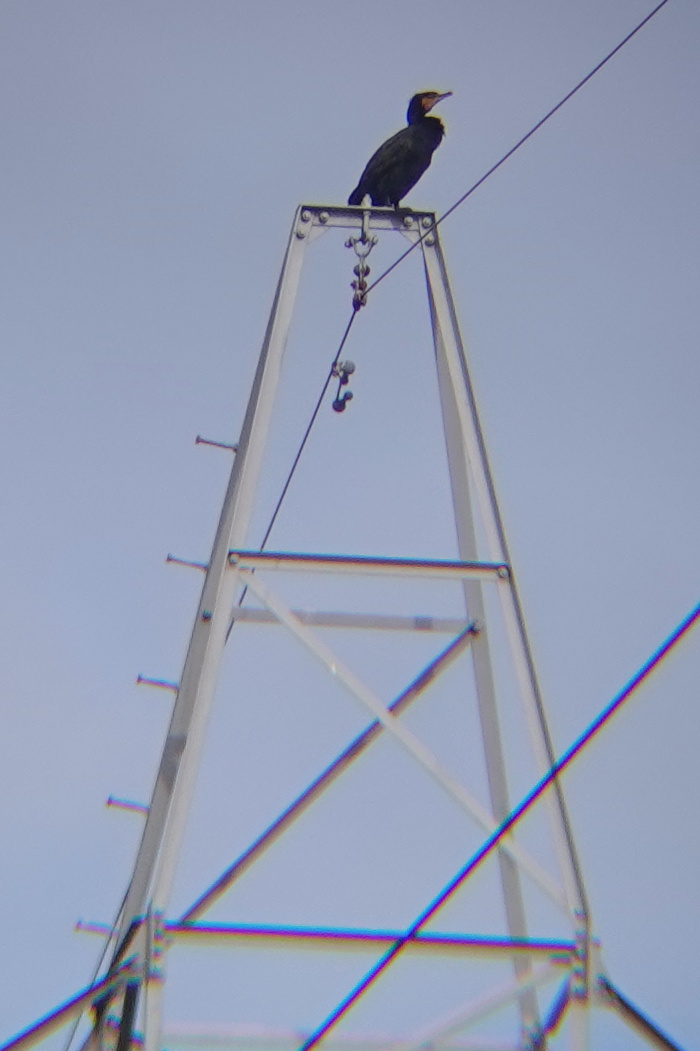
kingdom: Animalia
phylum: Chordata
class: Aves
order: Suliformes
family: Phalacrocoracidae
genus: Phalacrocorax
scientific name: Phalacrocorax carbo
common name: Great cormorant
